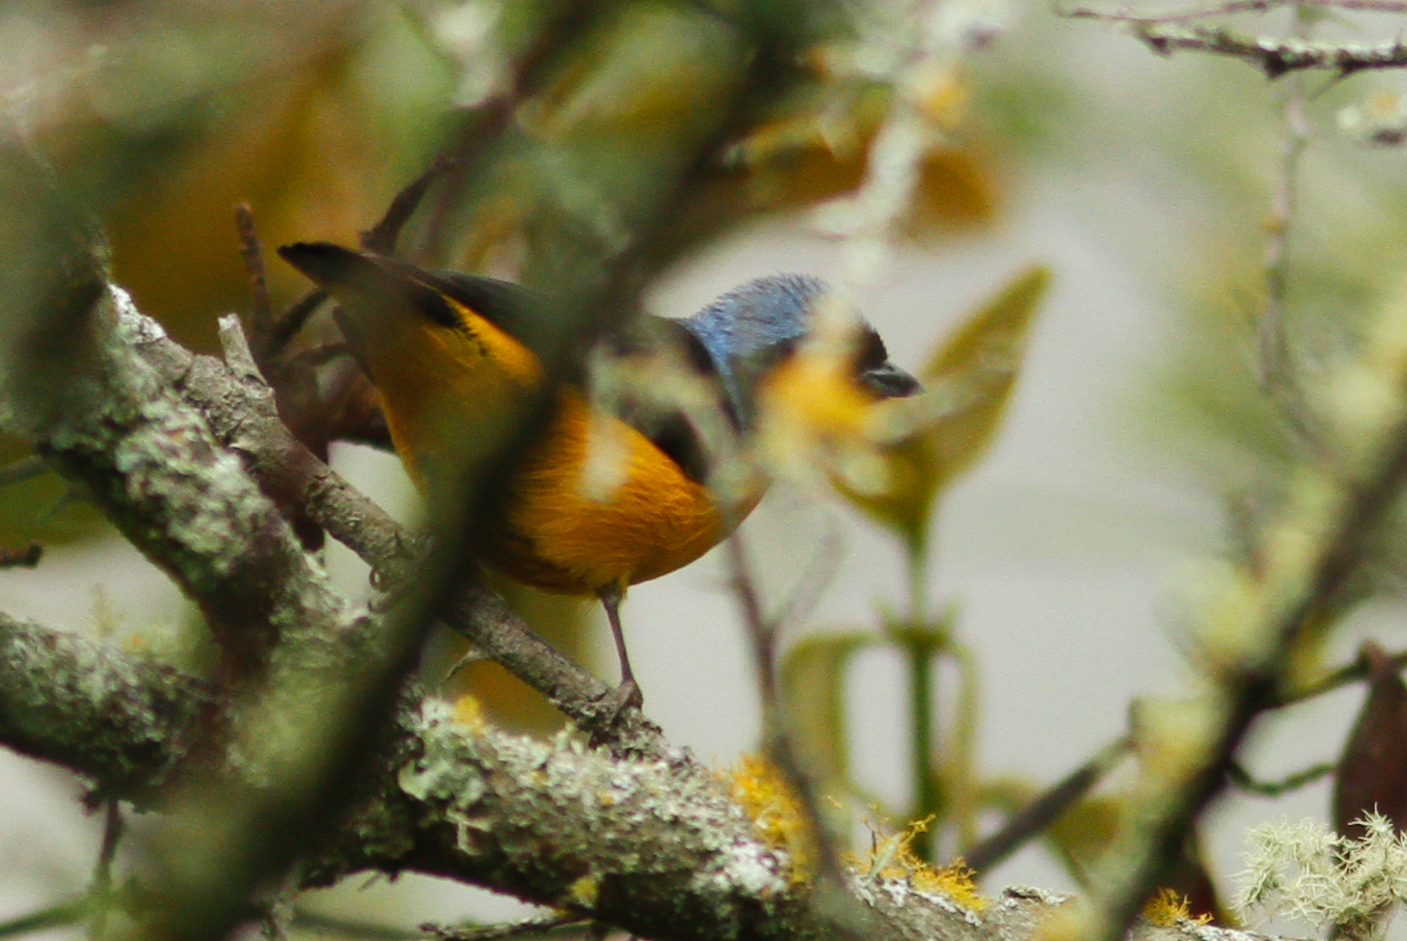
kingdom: Animalia
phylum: Chordata
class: Aves
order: Passeriformes
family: Fringillidae
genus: Euphonia
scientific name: Euphonia cyanocephala
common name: Golden-rumped euphonia
